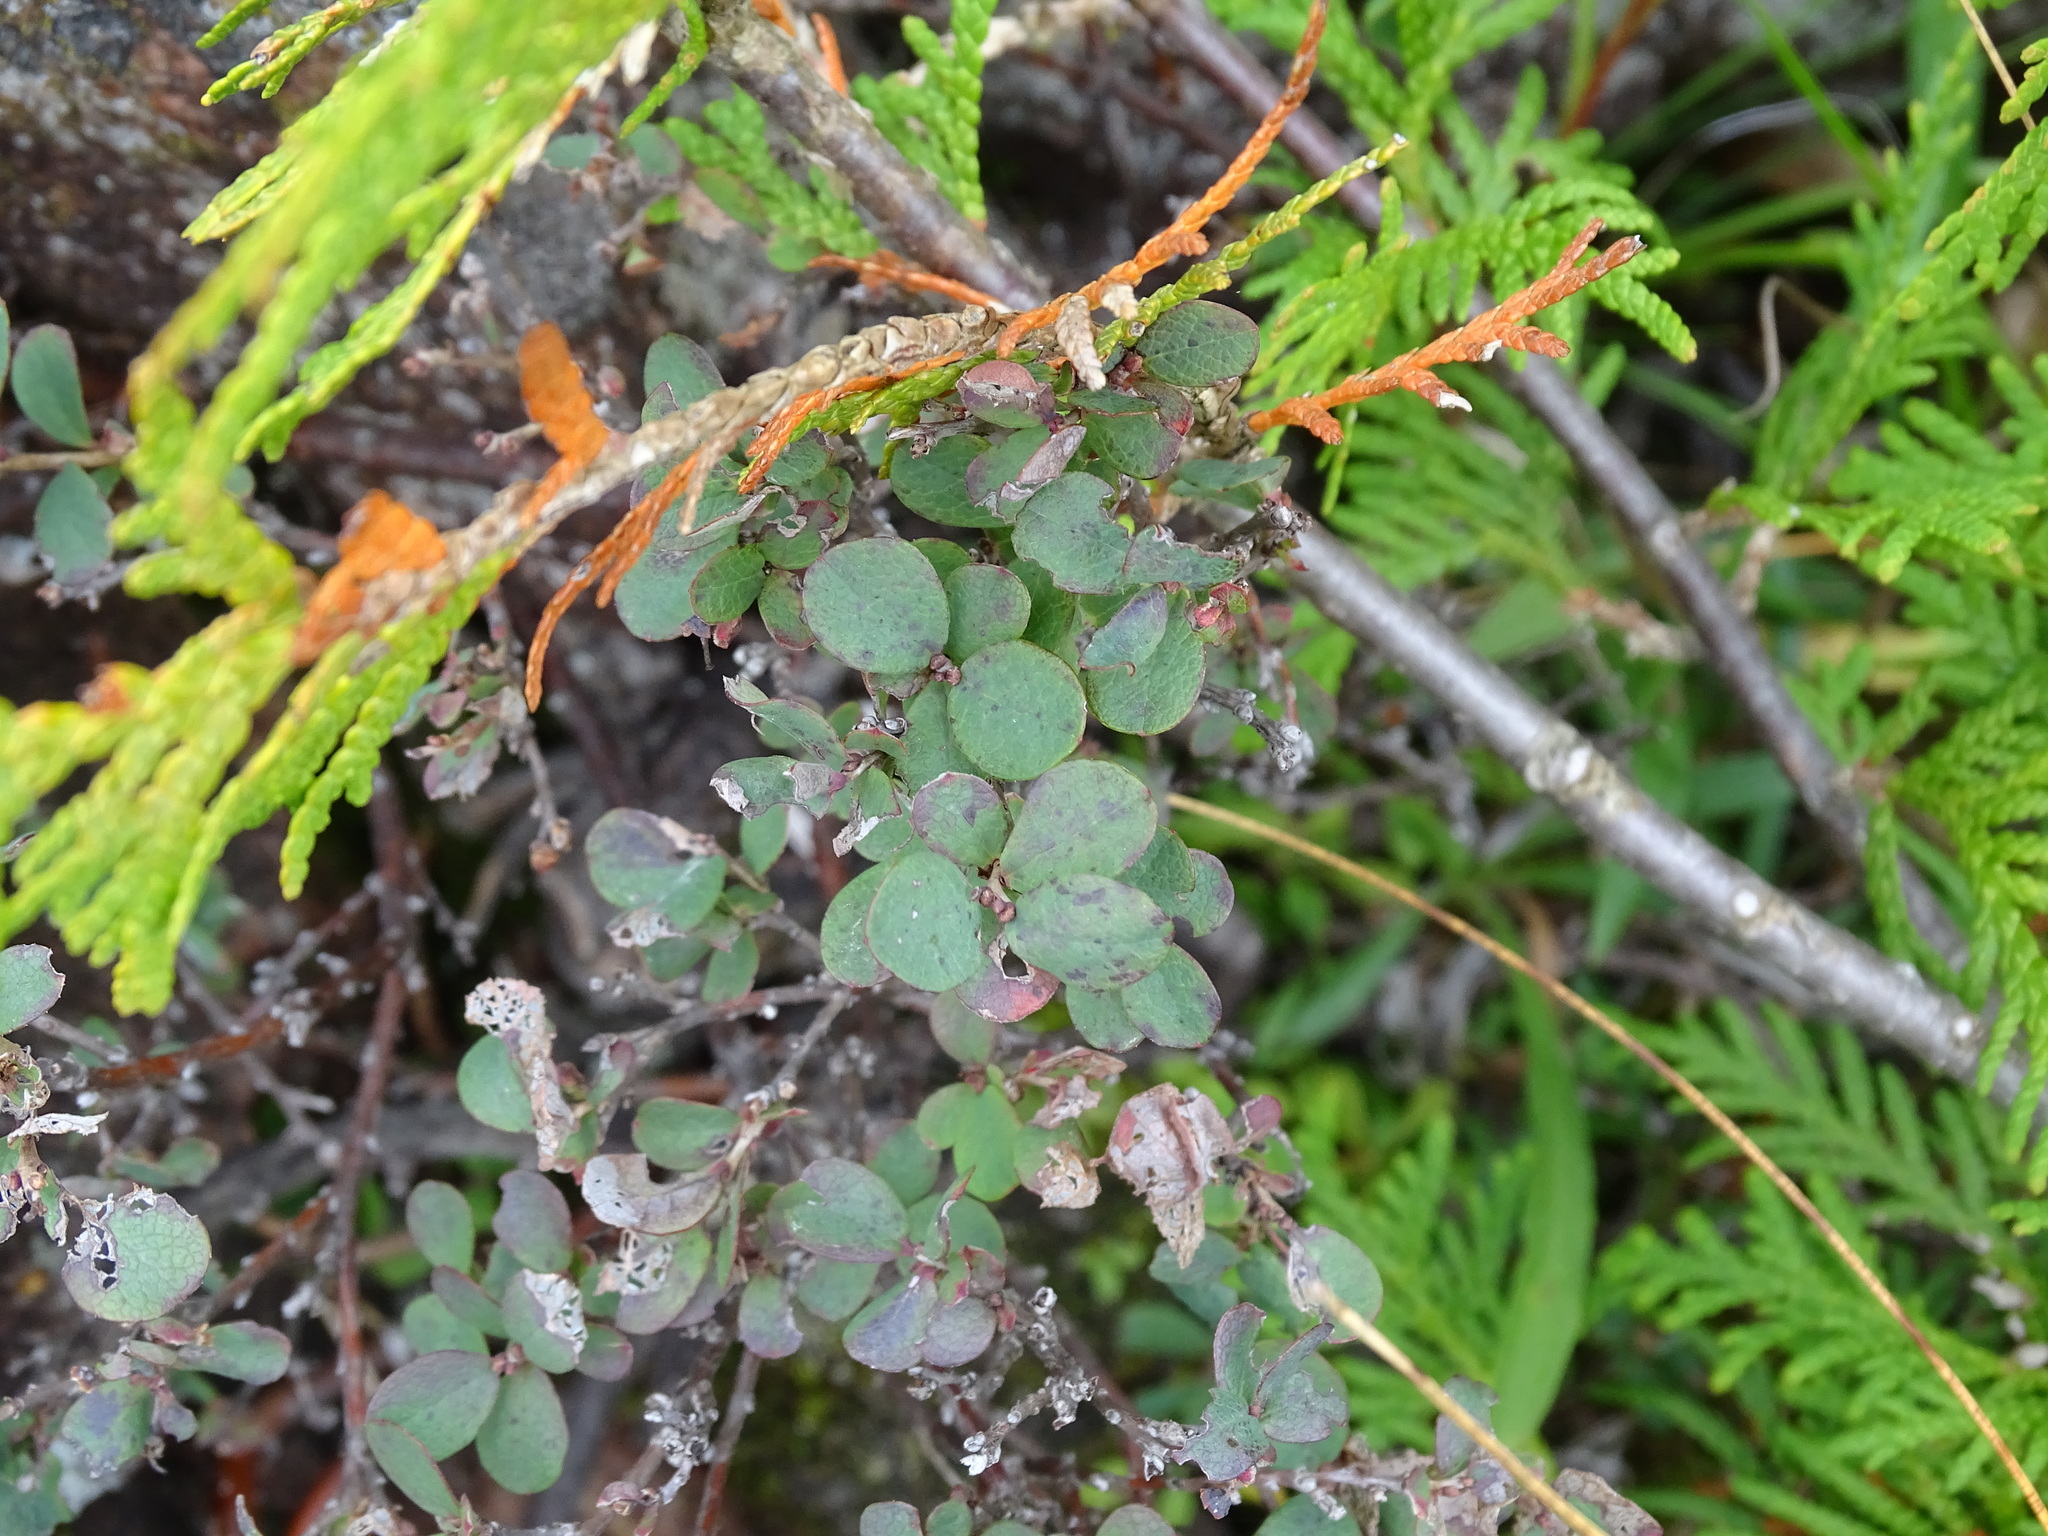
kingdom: Plantae
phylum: Tracheophyta
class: Magnoliopsida
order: Ericales
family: Ericaceae
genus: Vaccinium
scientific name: Vaccinium uliginosum
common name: Bog bilberry
